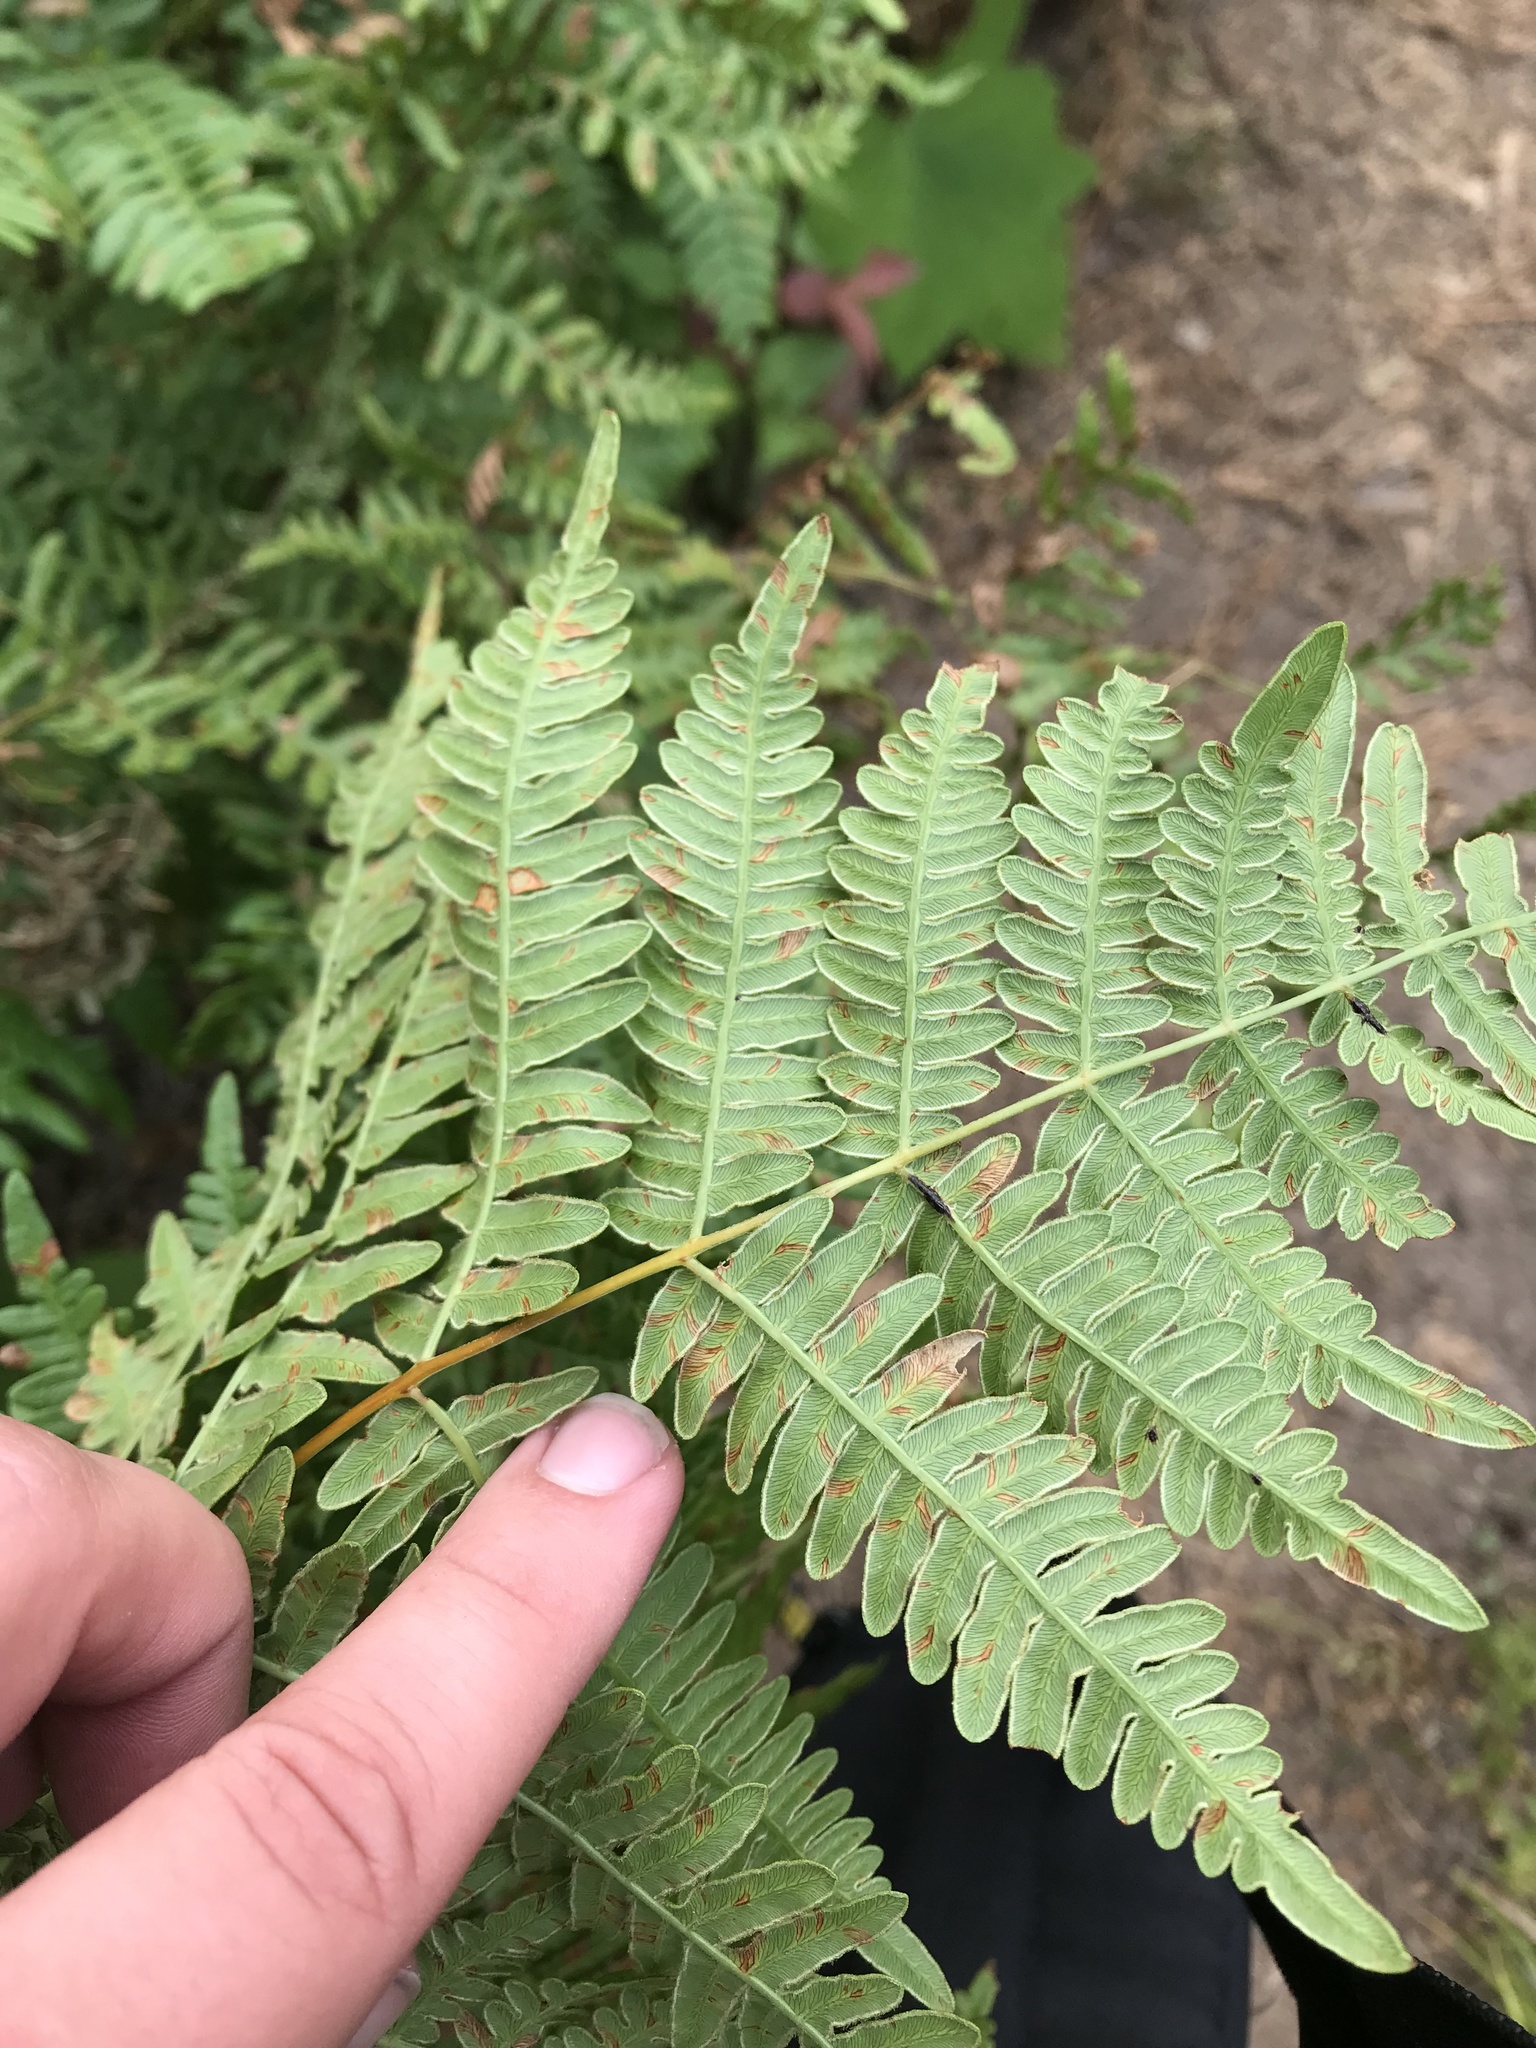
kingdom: Plantae
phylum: Tracheophyta
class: Polypodiopsida
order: Polypodiales
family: Dennstaedtiaceae
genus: Pteridium
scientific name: Pteridium aquilinum
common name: Bracken
